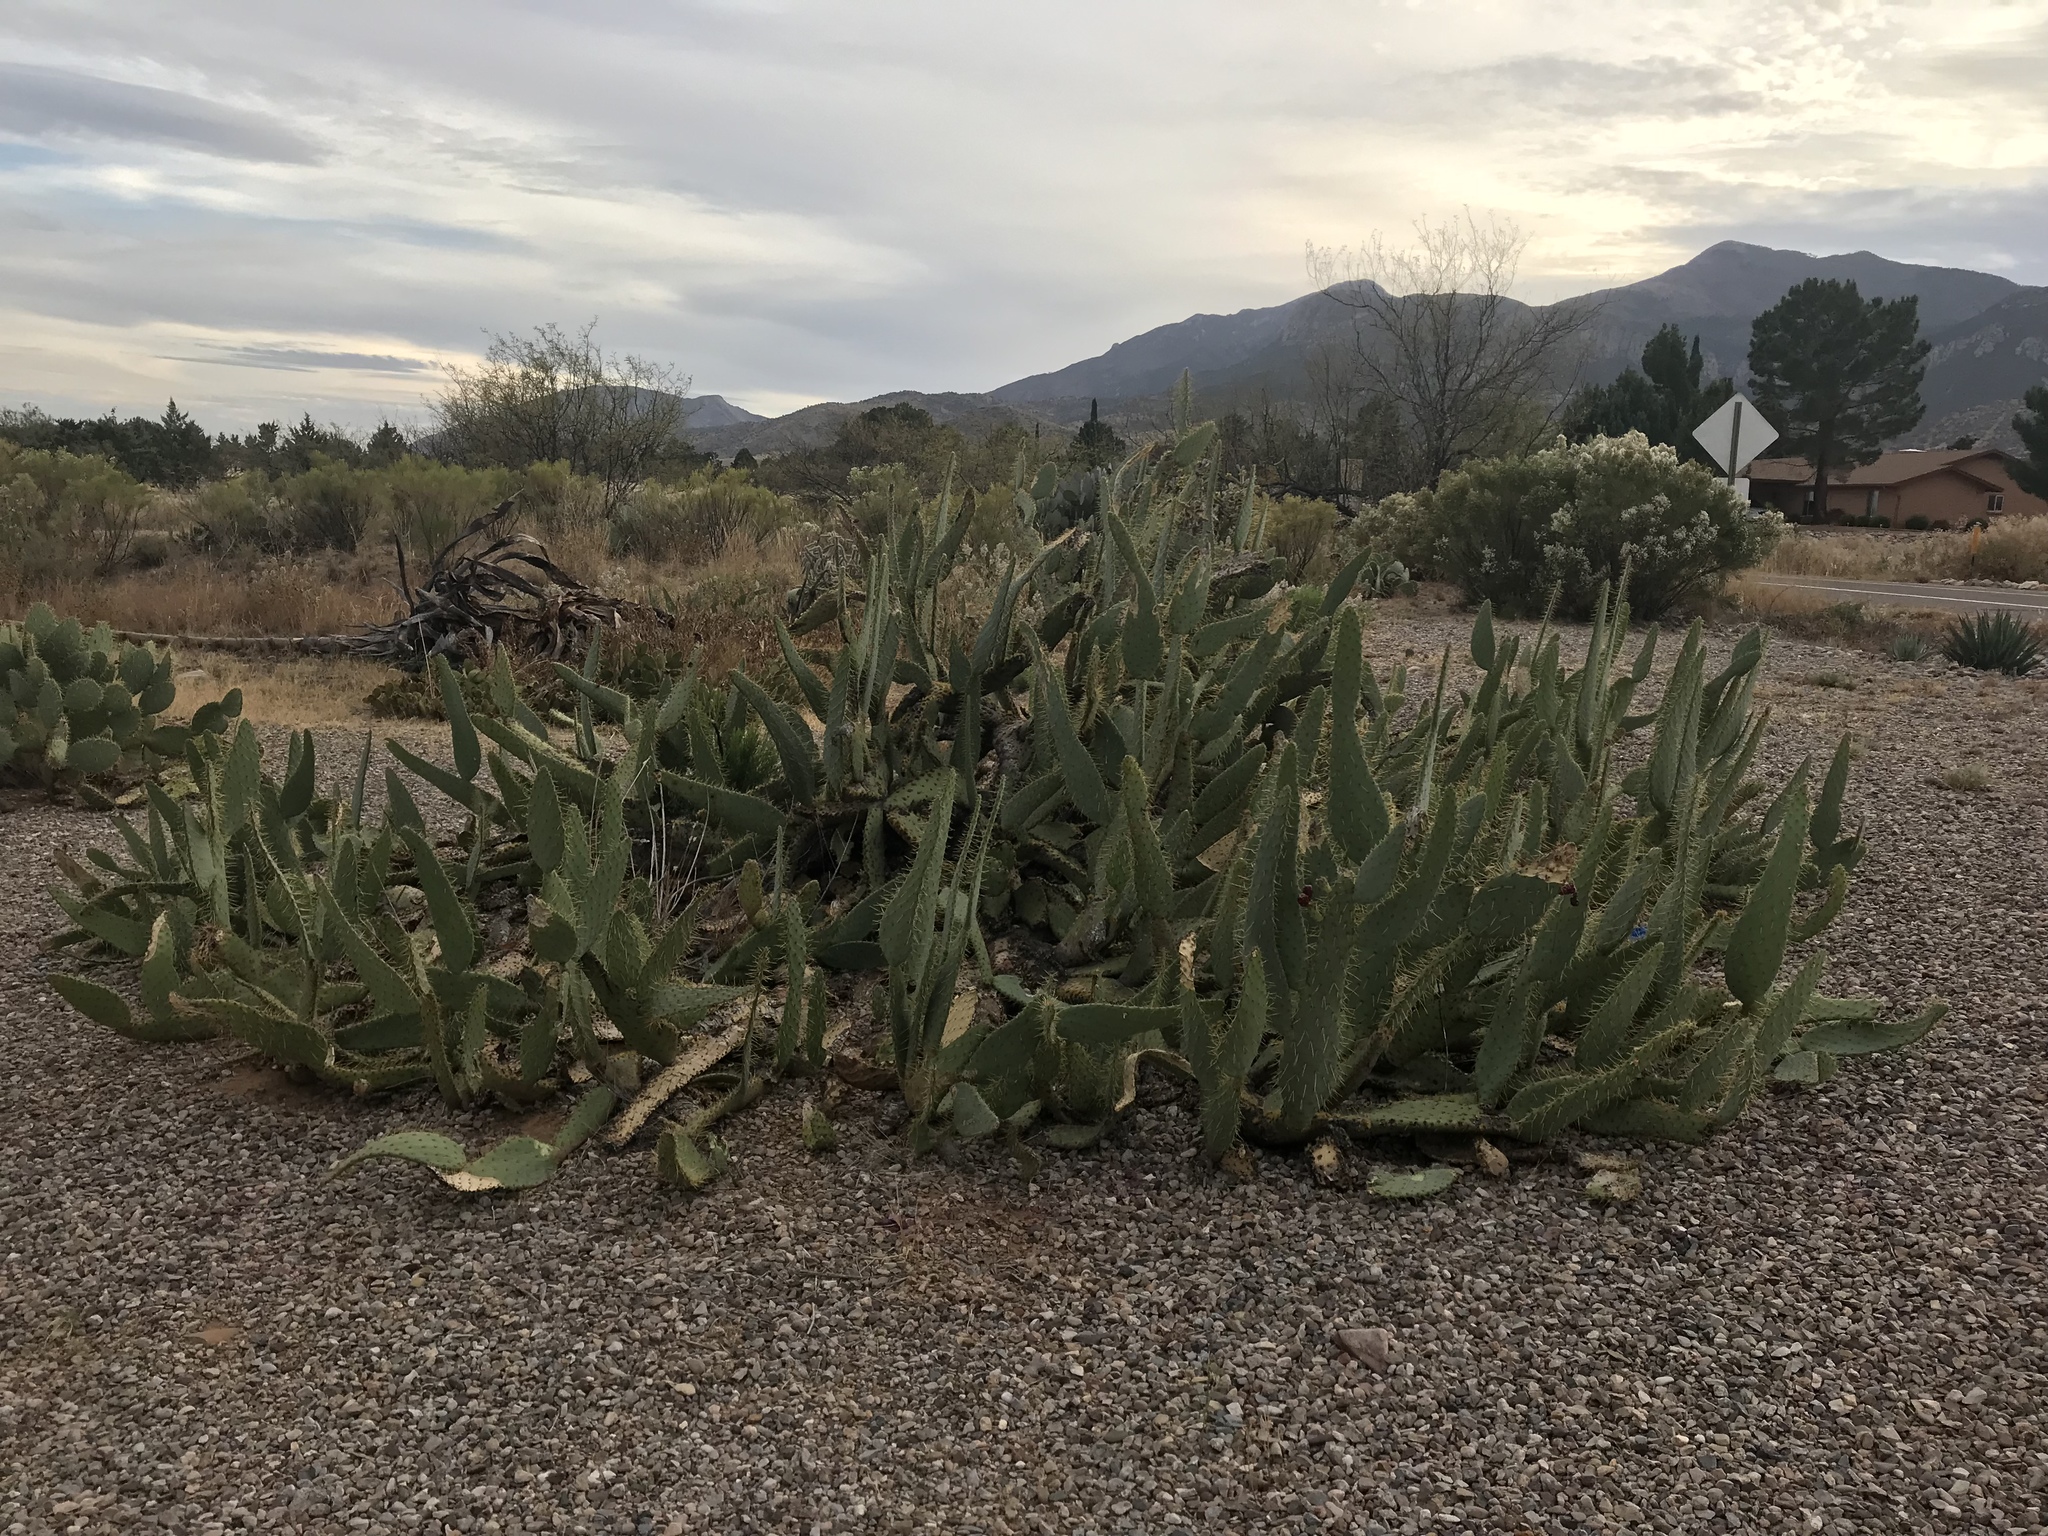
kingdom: Plantae
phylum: Tracheophyta
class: Magnoliopsida
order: Caryophyllales
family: Cactaceae
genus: Opuntia
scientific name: Opuntia engelmannii
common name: Cactus-apple
